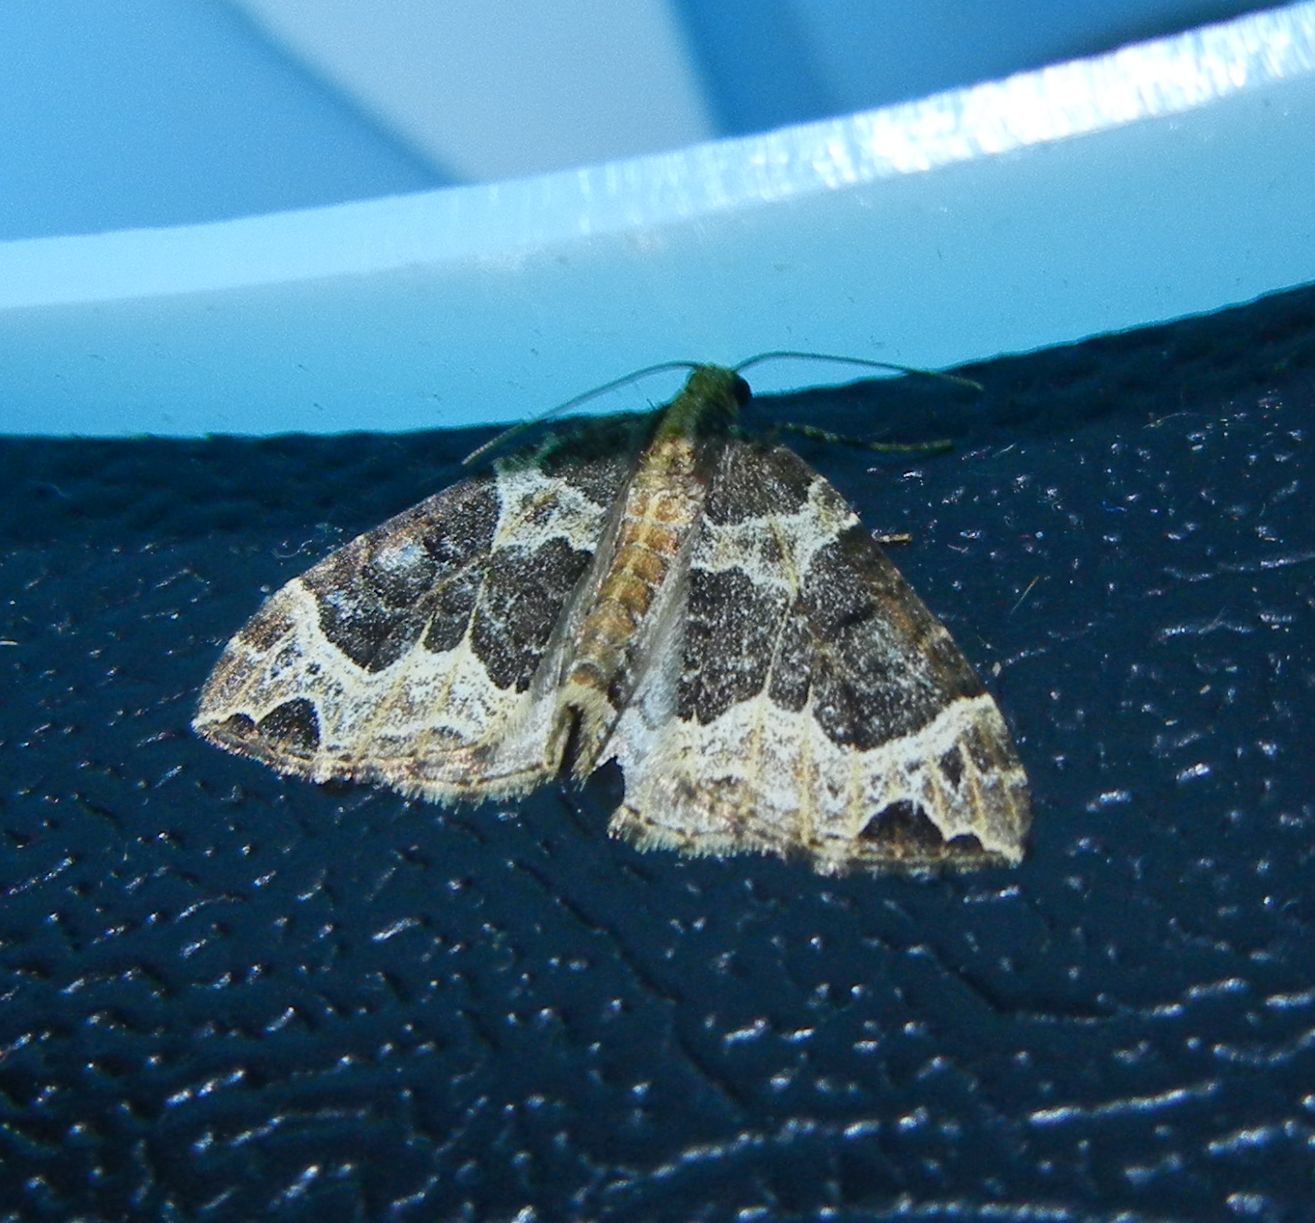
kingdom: Animalia
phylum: Arthropoda
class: Insecta
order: Lepidoptera
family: Geometridae
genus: Ecliptopera
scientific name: Ecliptopera silaceata
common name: Small phoenix
